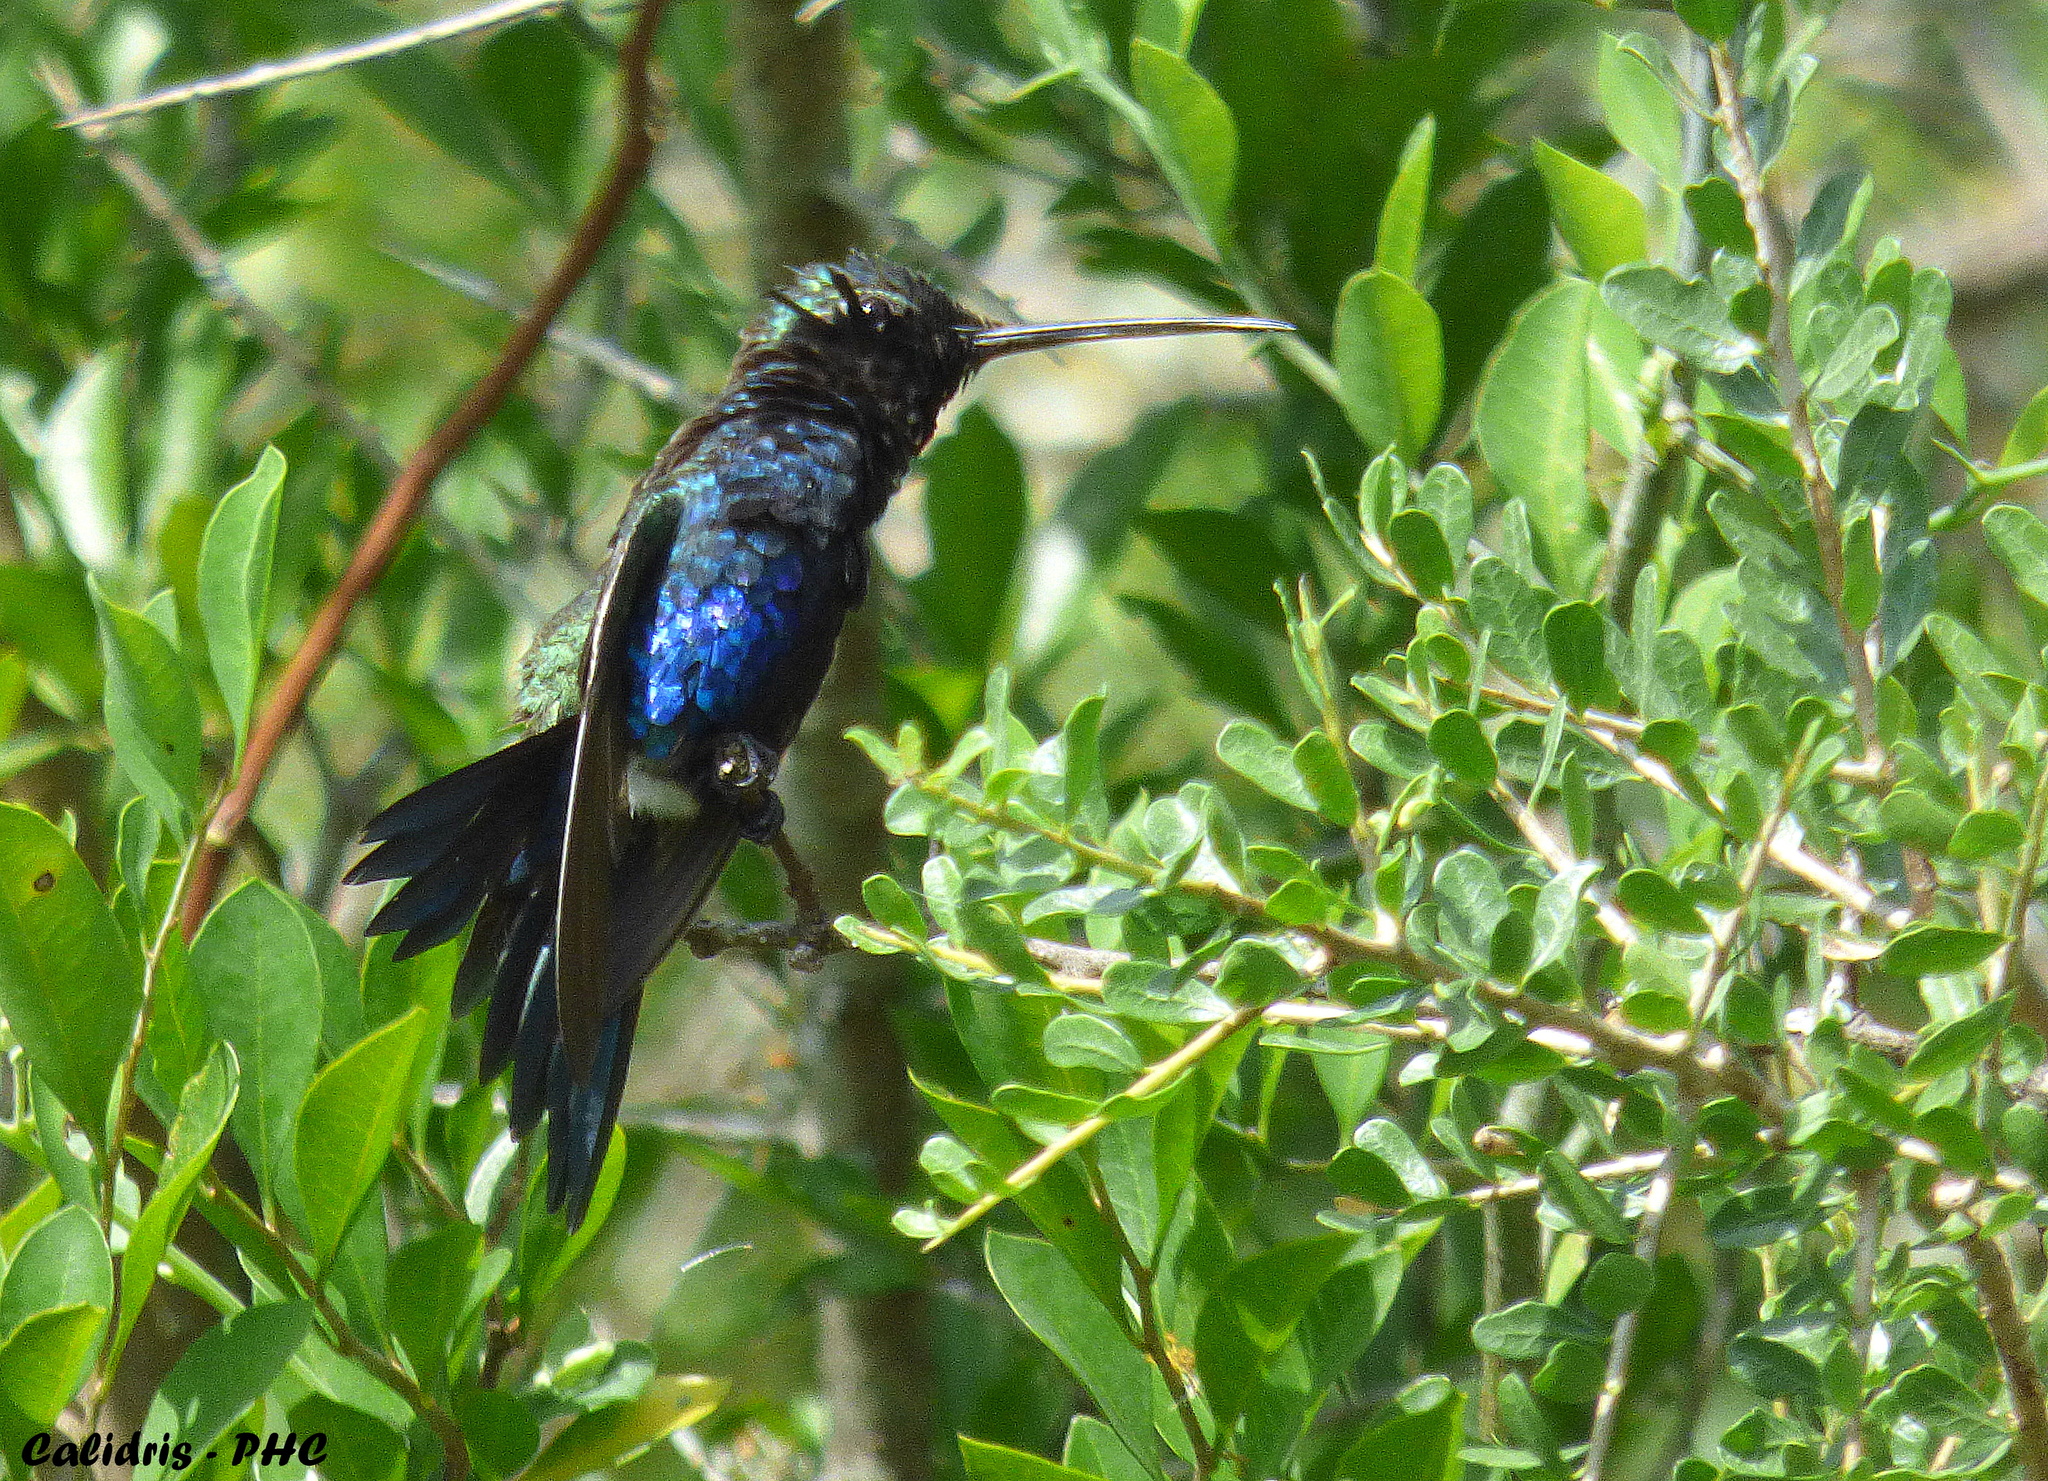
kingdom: Animalia
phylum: Chordata
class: Aves
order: Apodiformes
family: Trochilidae
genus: Heliomaster
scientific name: Heliomaster furcifer
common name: Blue-tufted starthroat
